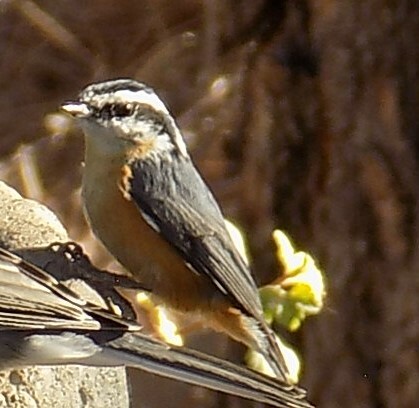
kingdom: Animalia
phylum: Chordata
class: Aves
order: Passeriformes
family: Sittidae
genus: Sitta
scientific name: Sitta canadensis
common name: Red-breasted nuthatch
